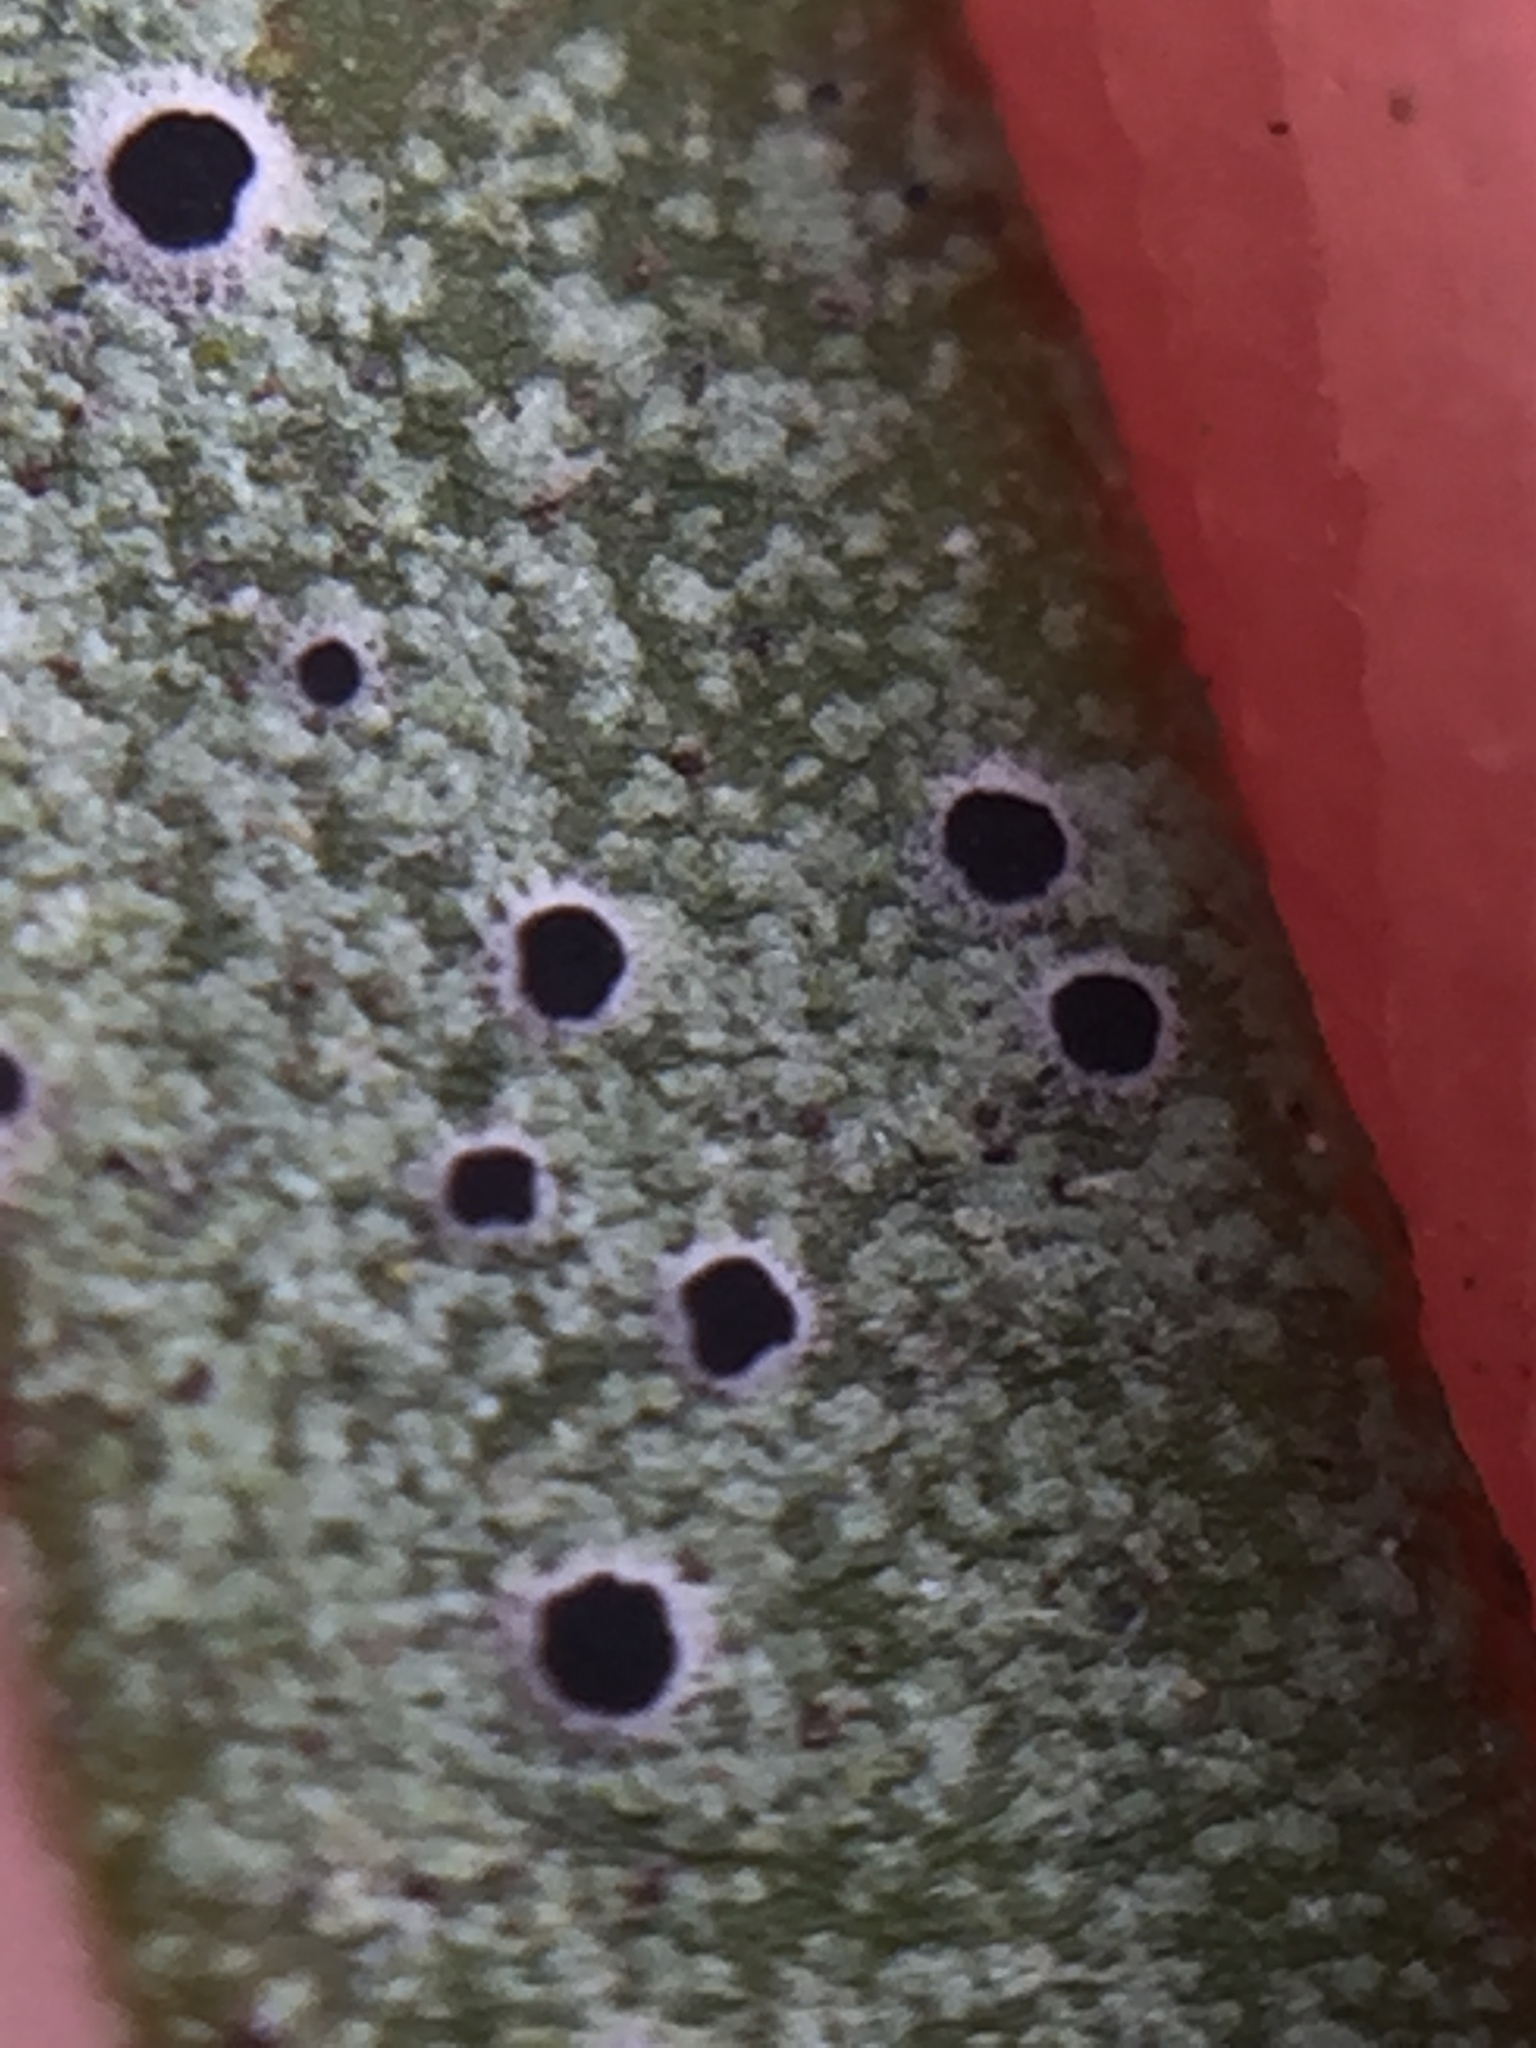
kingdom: Fungi
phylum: Ascomycota
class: Lecanoromycetes
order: Lecanorales
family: Byssolomataceae
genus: Byssoloma
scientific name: Byssoloma subdiscordans
